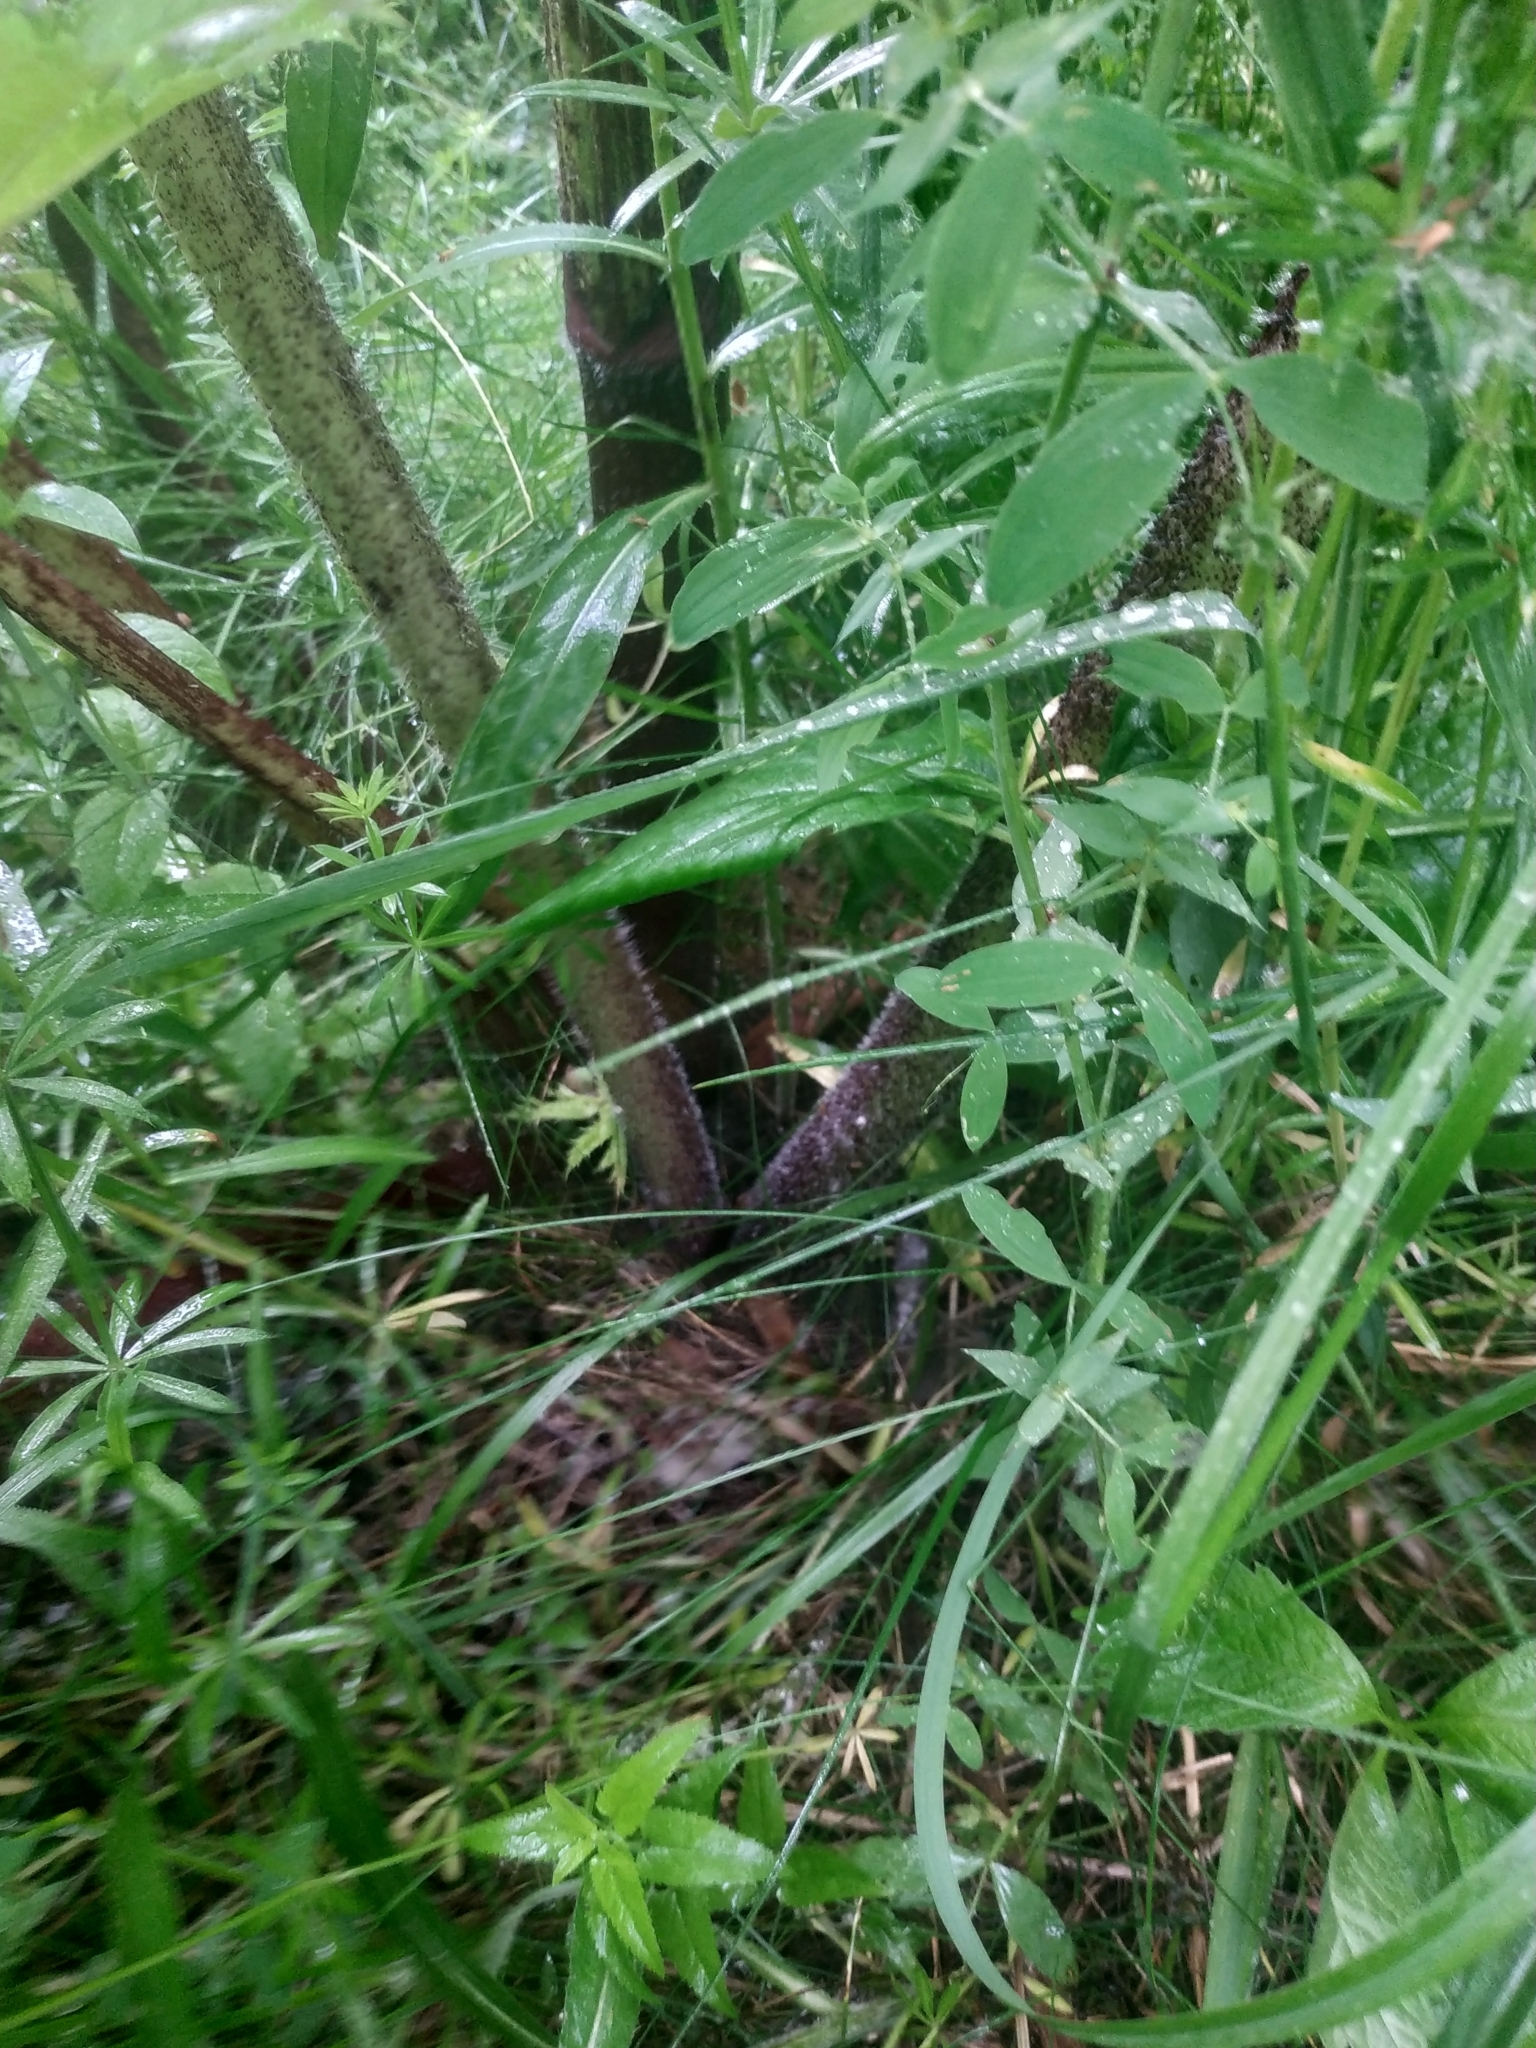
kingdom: Plantae
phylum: Tracheophyta
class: Magnoliopsida
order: Apiales
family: Apiaceae
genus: Heracleum
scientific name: Heracleum sosnowskyi
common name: Sosnowsky's hogweed
